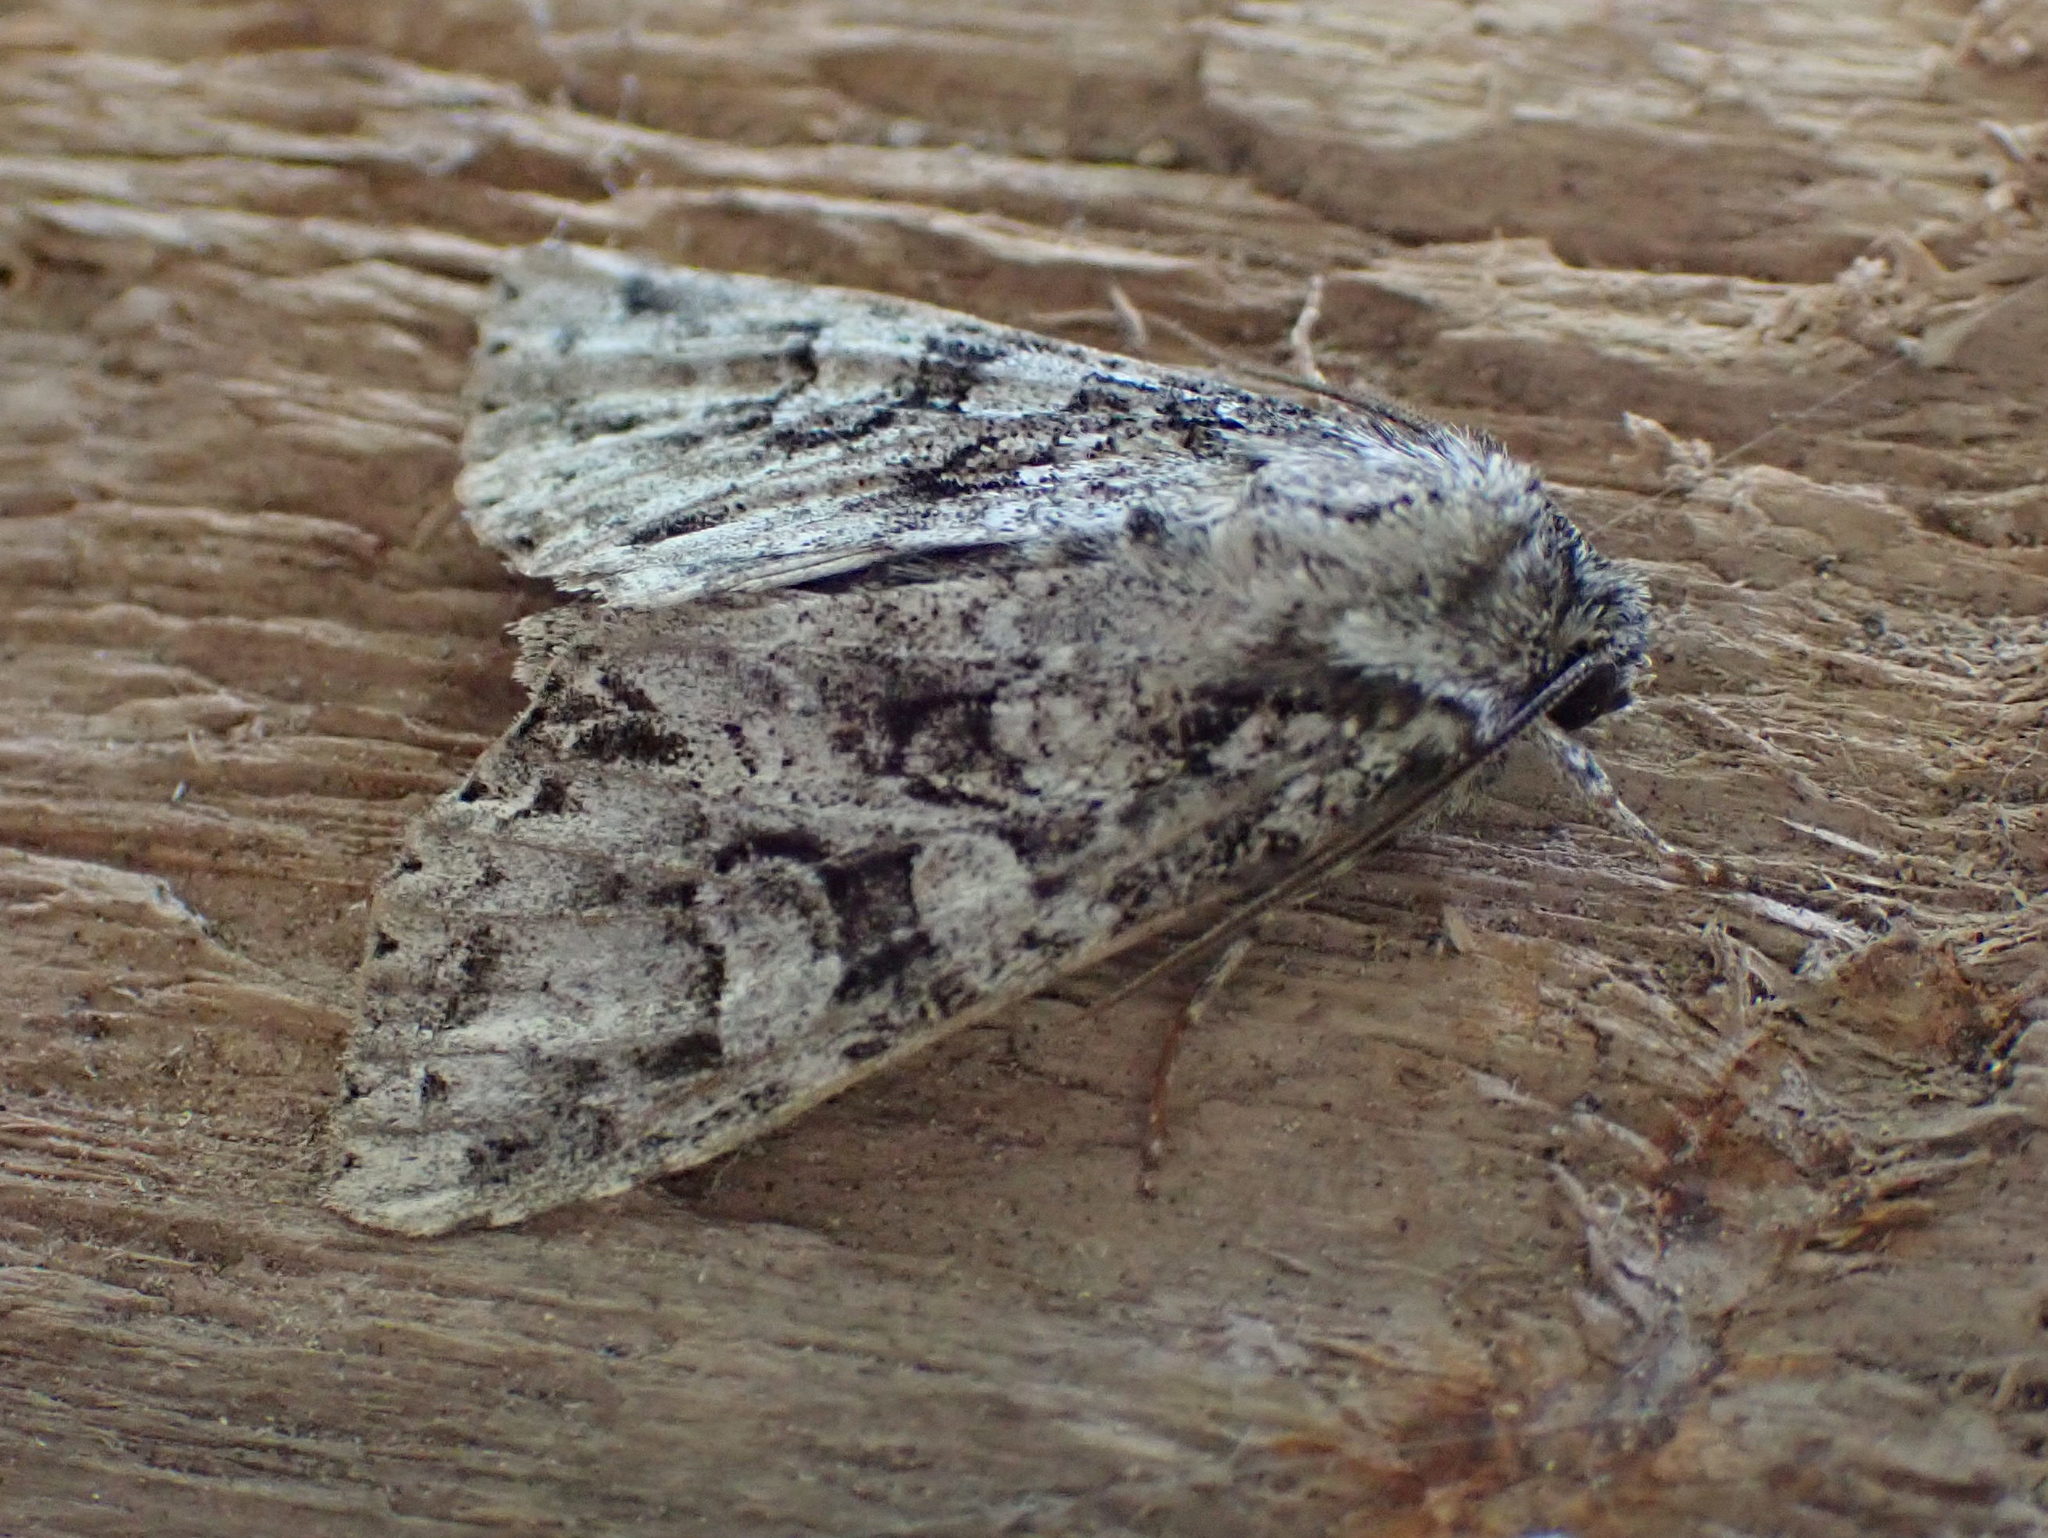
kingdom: Animalia
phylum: Arthropoda
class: Insecta
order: Lepidoptera
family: Noctuidae
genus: Polia
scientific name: Polia imbrifera
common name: Cloudy arches moth
